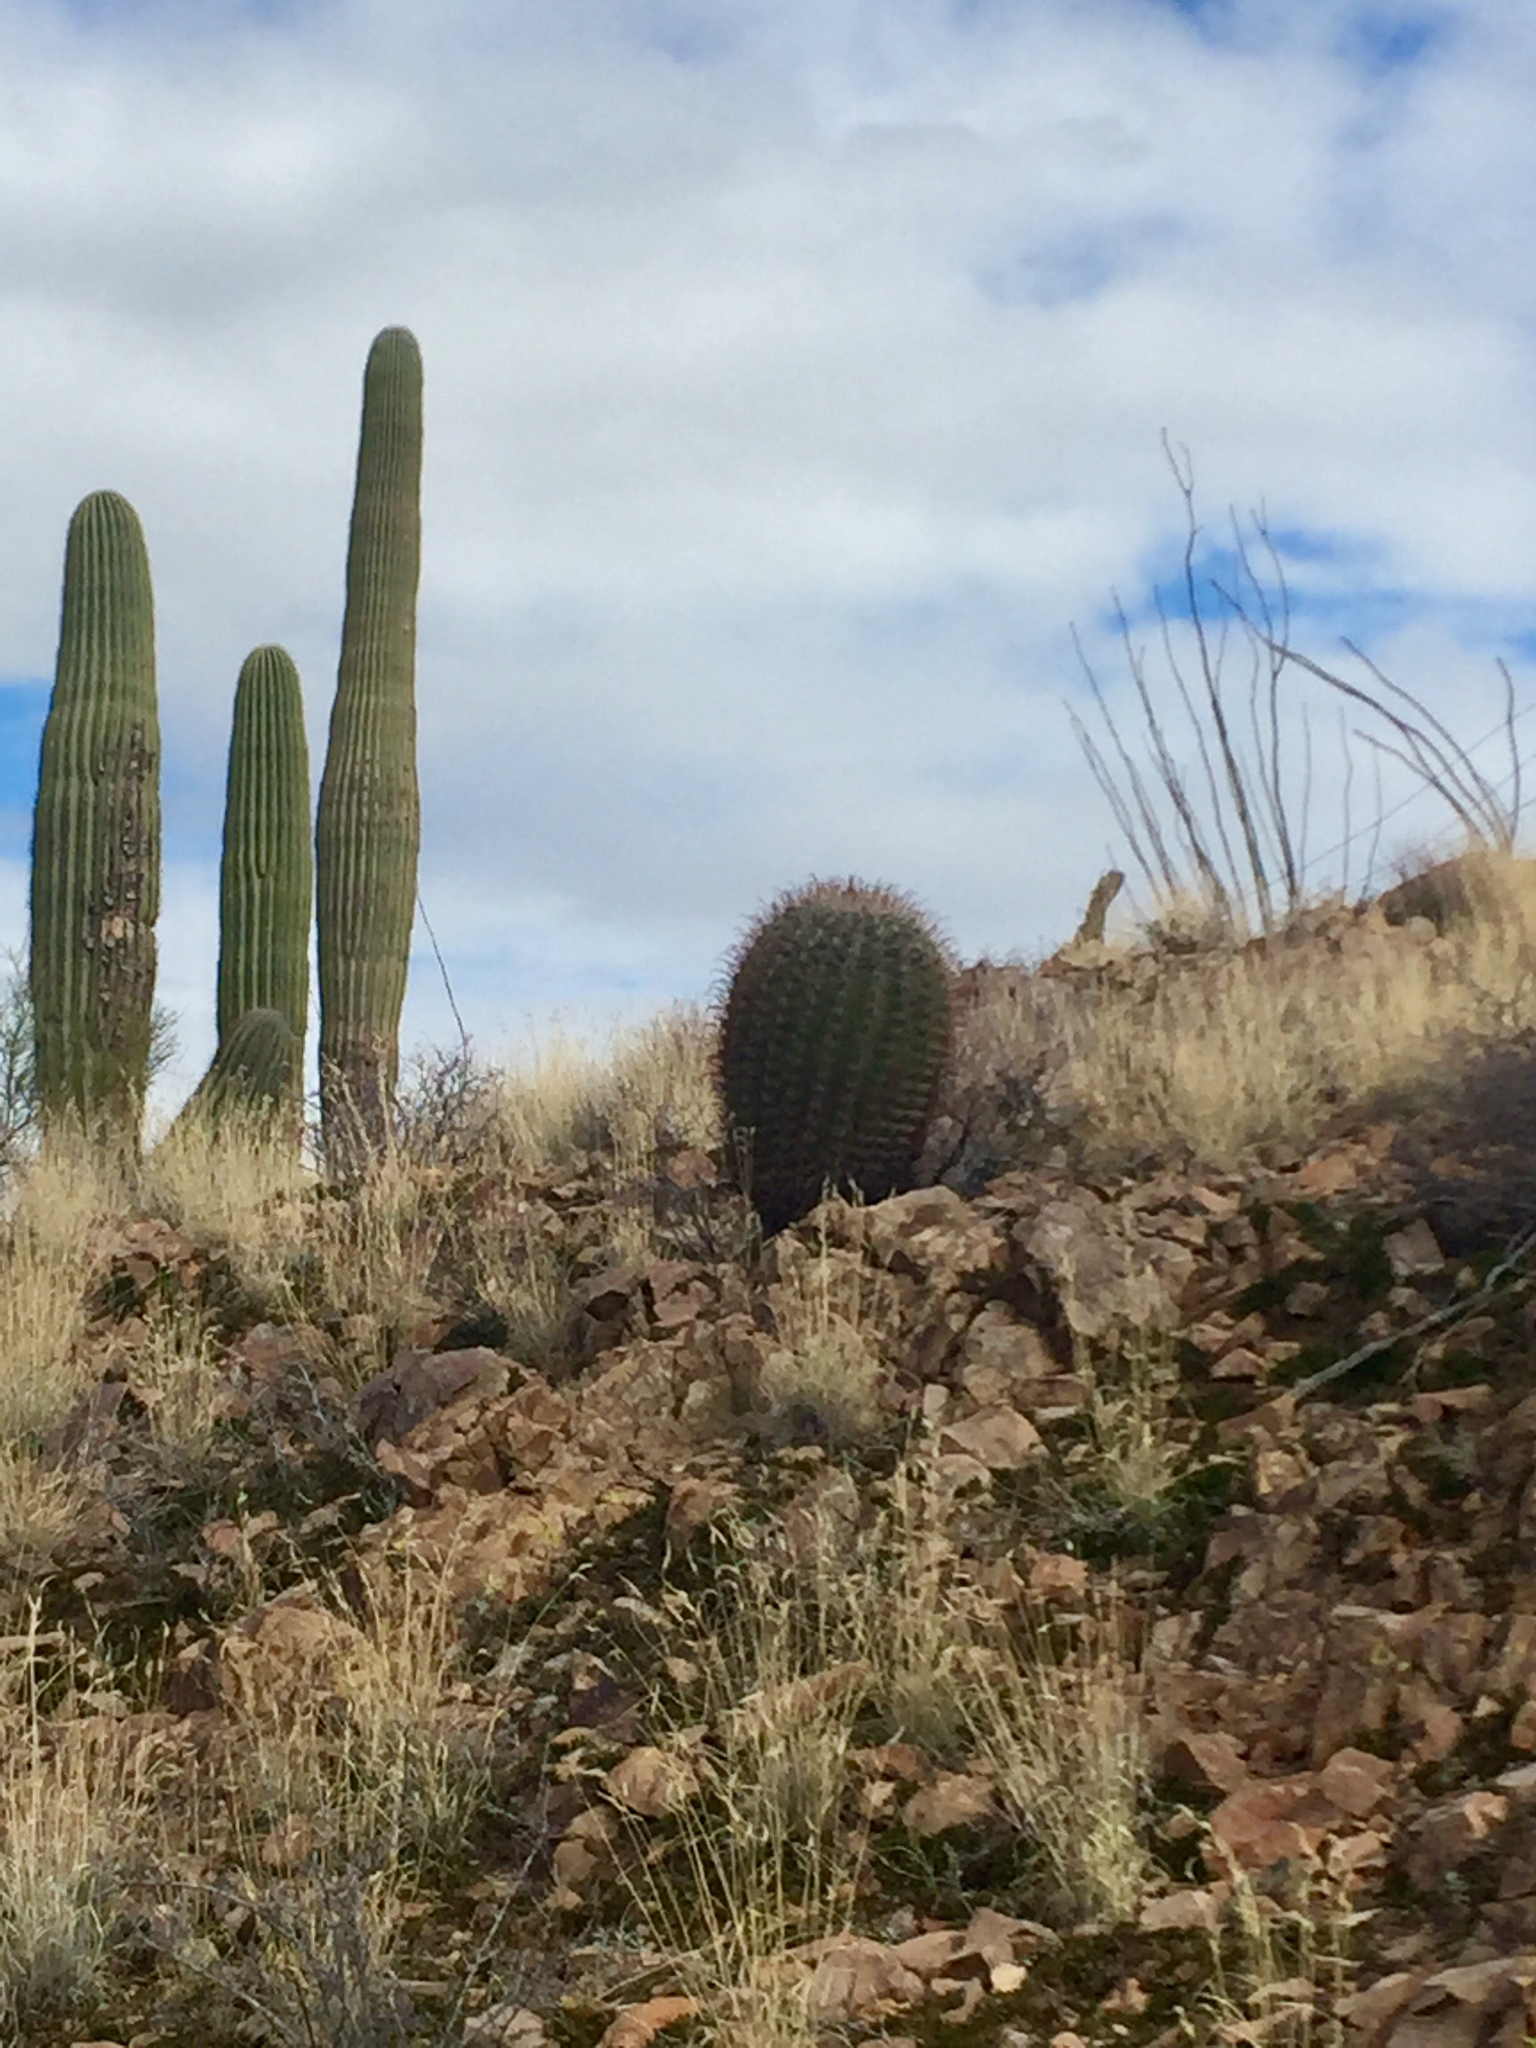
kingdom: Plantae
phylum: Tracheophyta
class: Magnoliopsida
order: Caryophyllales
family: Cactaceae
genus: Ferocactus
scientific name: Ferocactus wislizeni
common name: Candy barrel cactus
